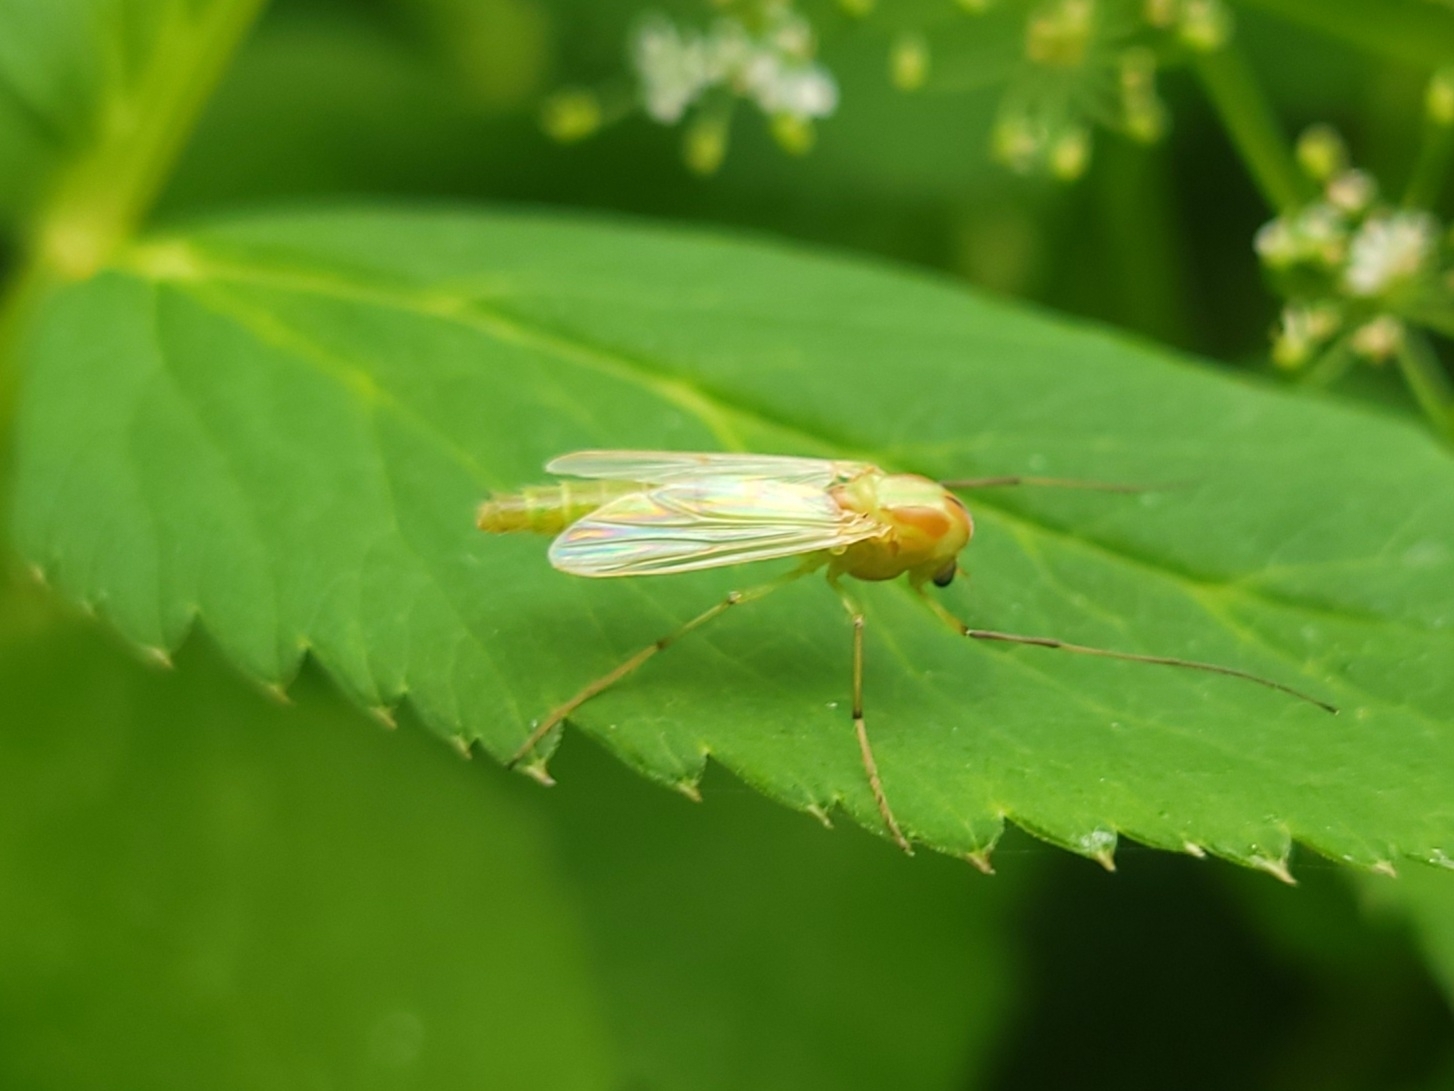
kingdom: Animalia
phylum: Arthropoda
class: Insecta
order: Diptera
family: Chironomidae
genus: Axarus
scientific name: Axarus
